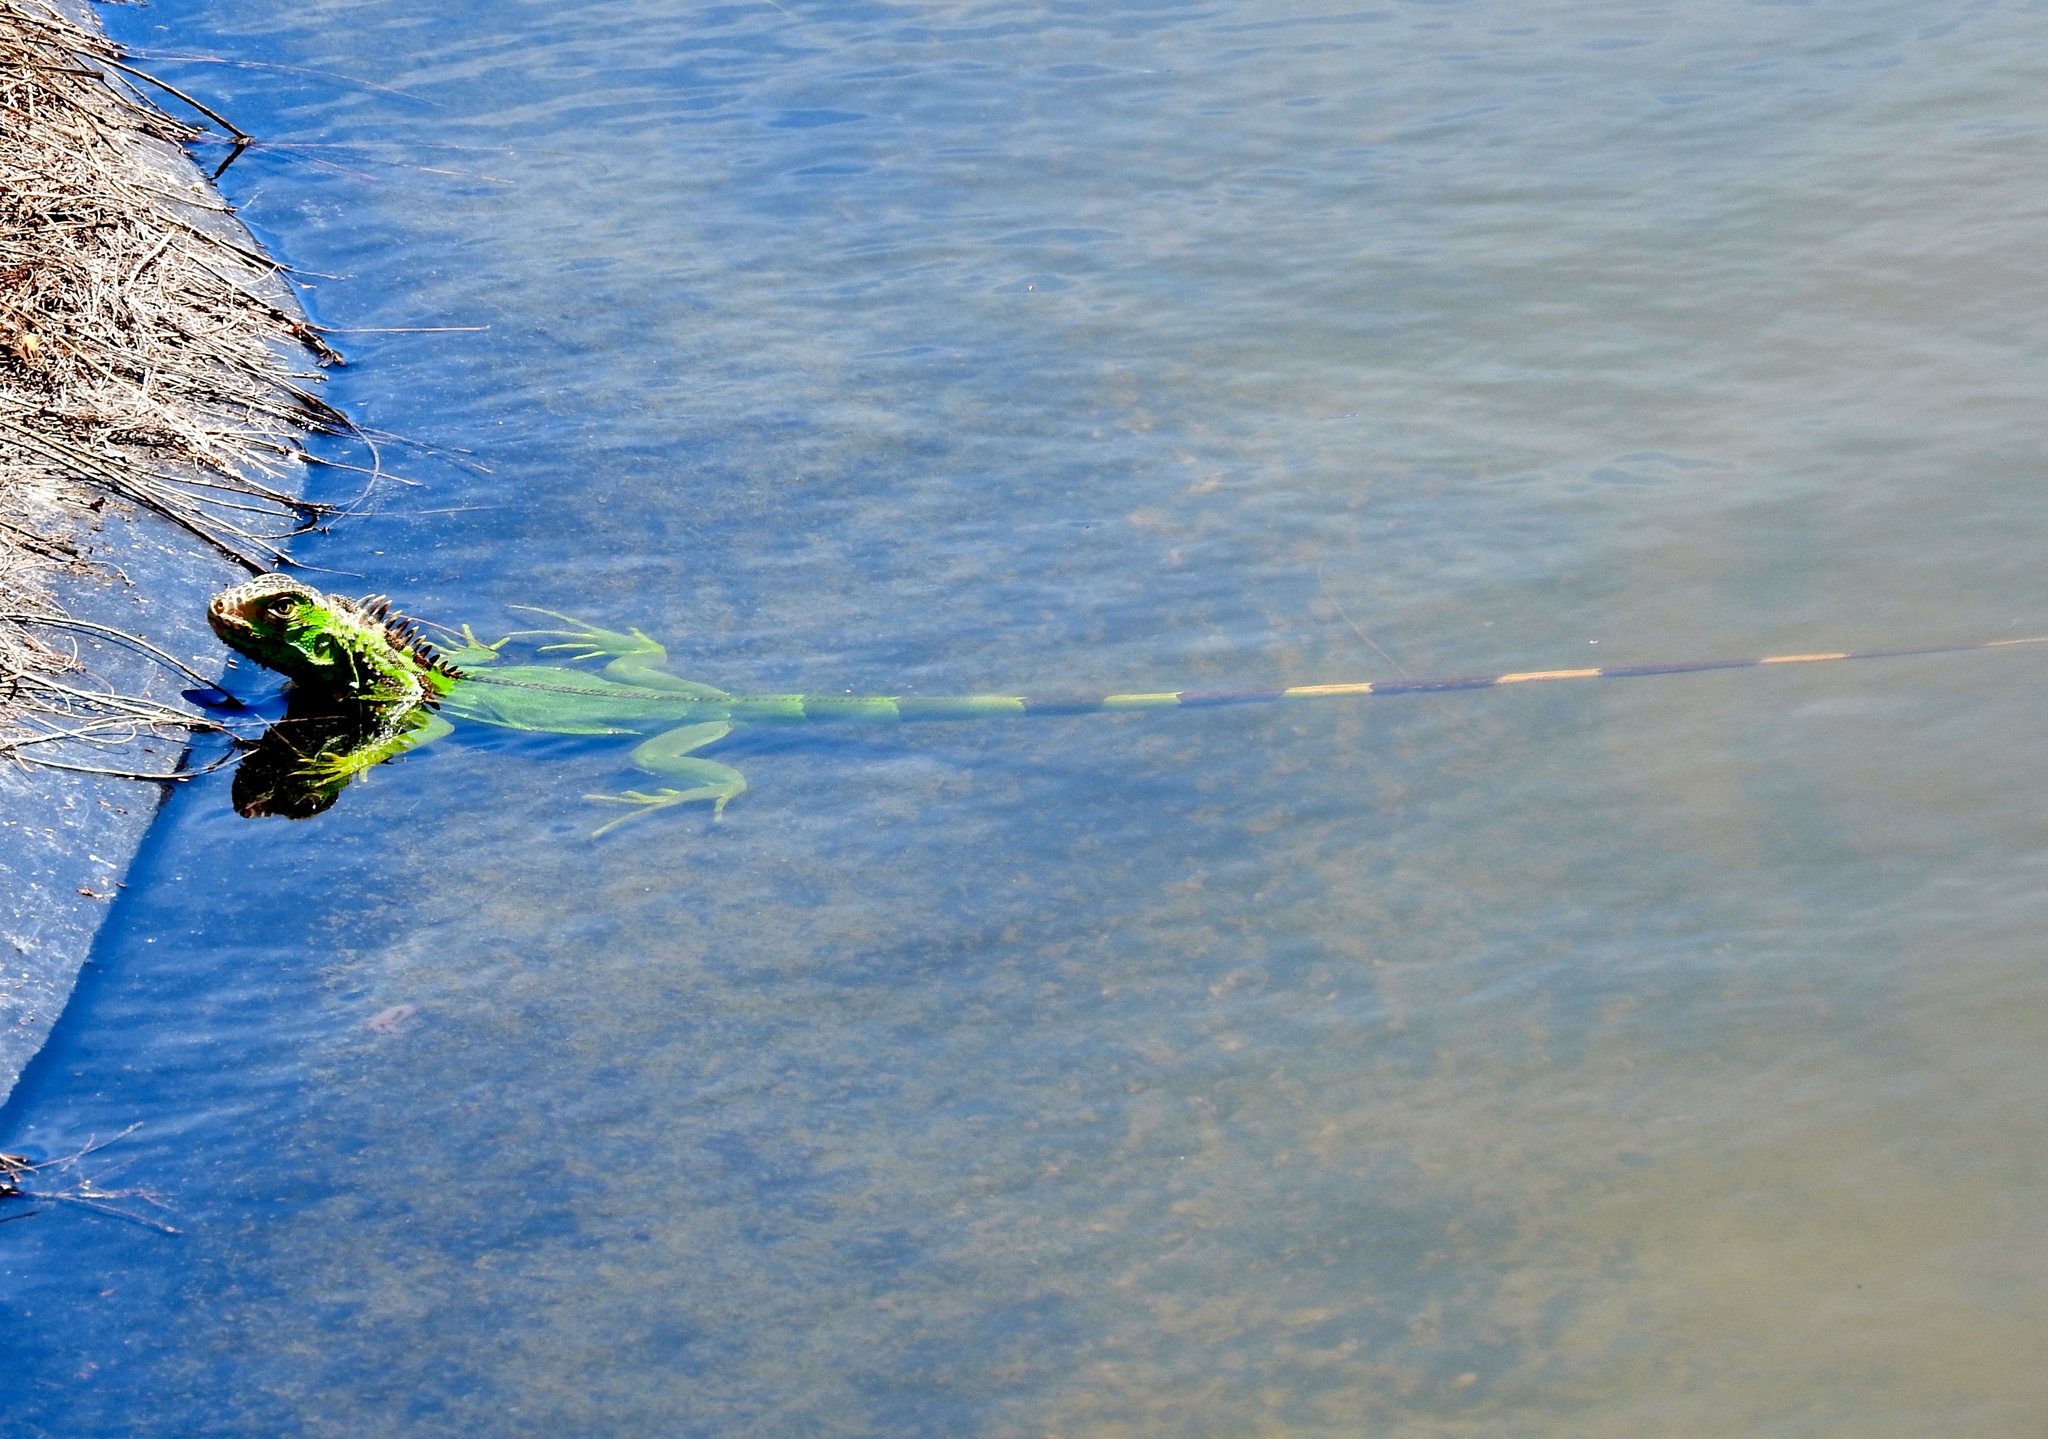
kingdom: Animalia
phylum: Chordata
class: Squamata
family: Iguanidae
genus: Iguana
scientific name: Iguana iguana
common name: Green iguana
